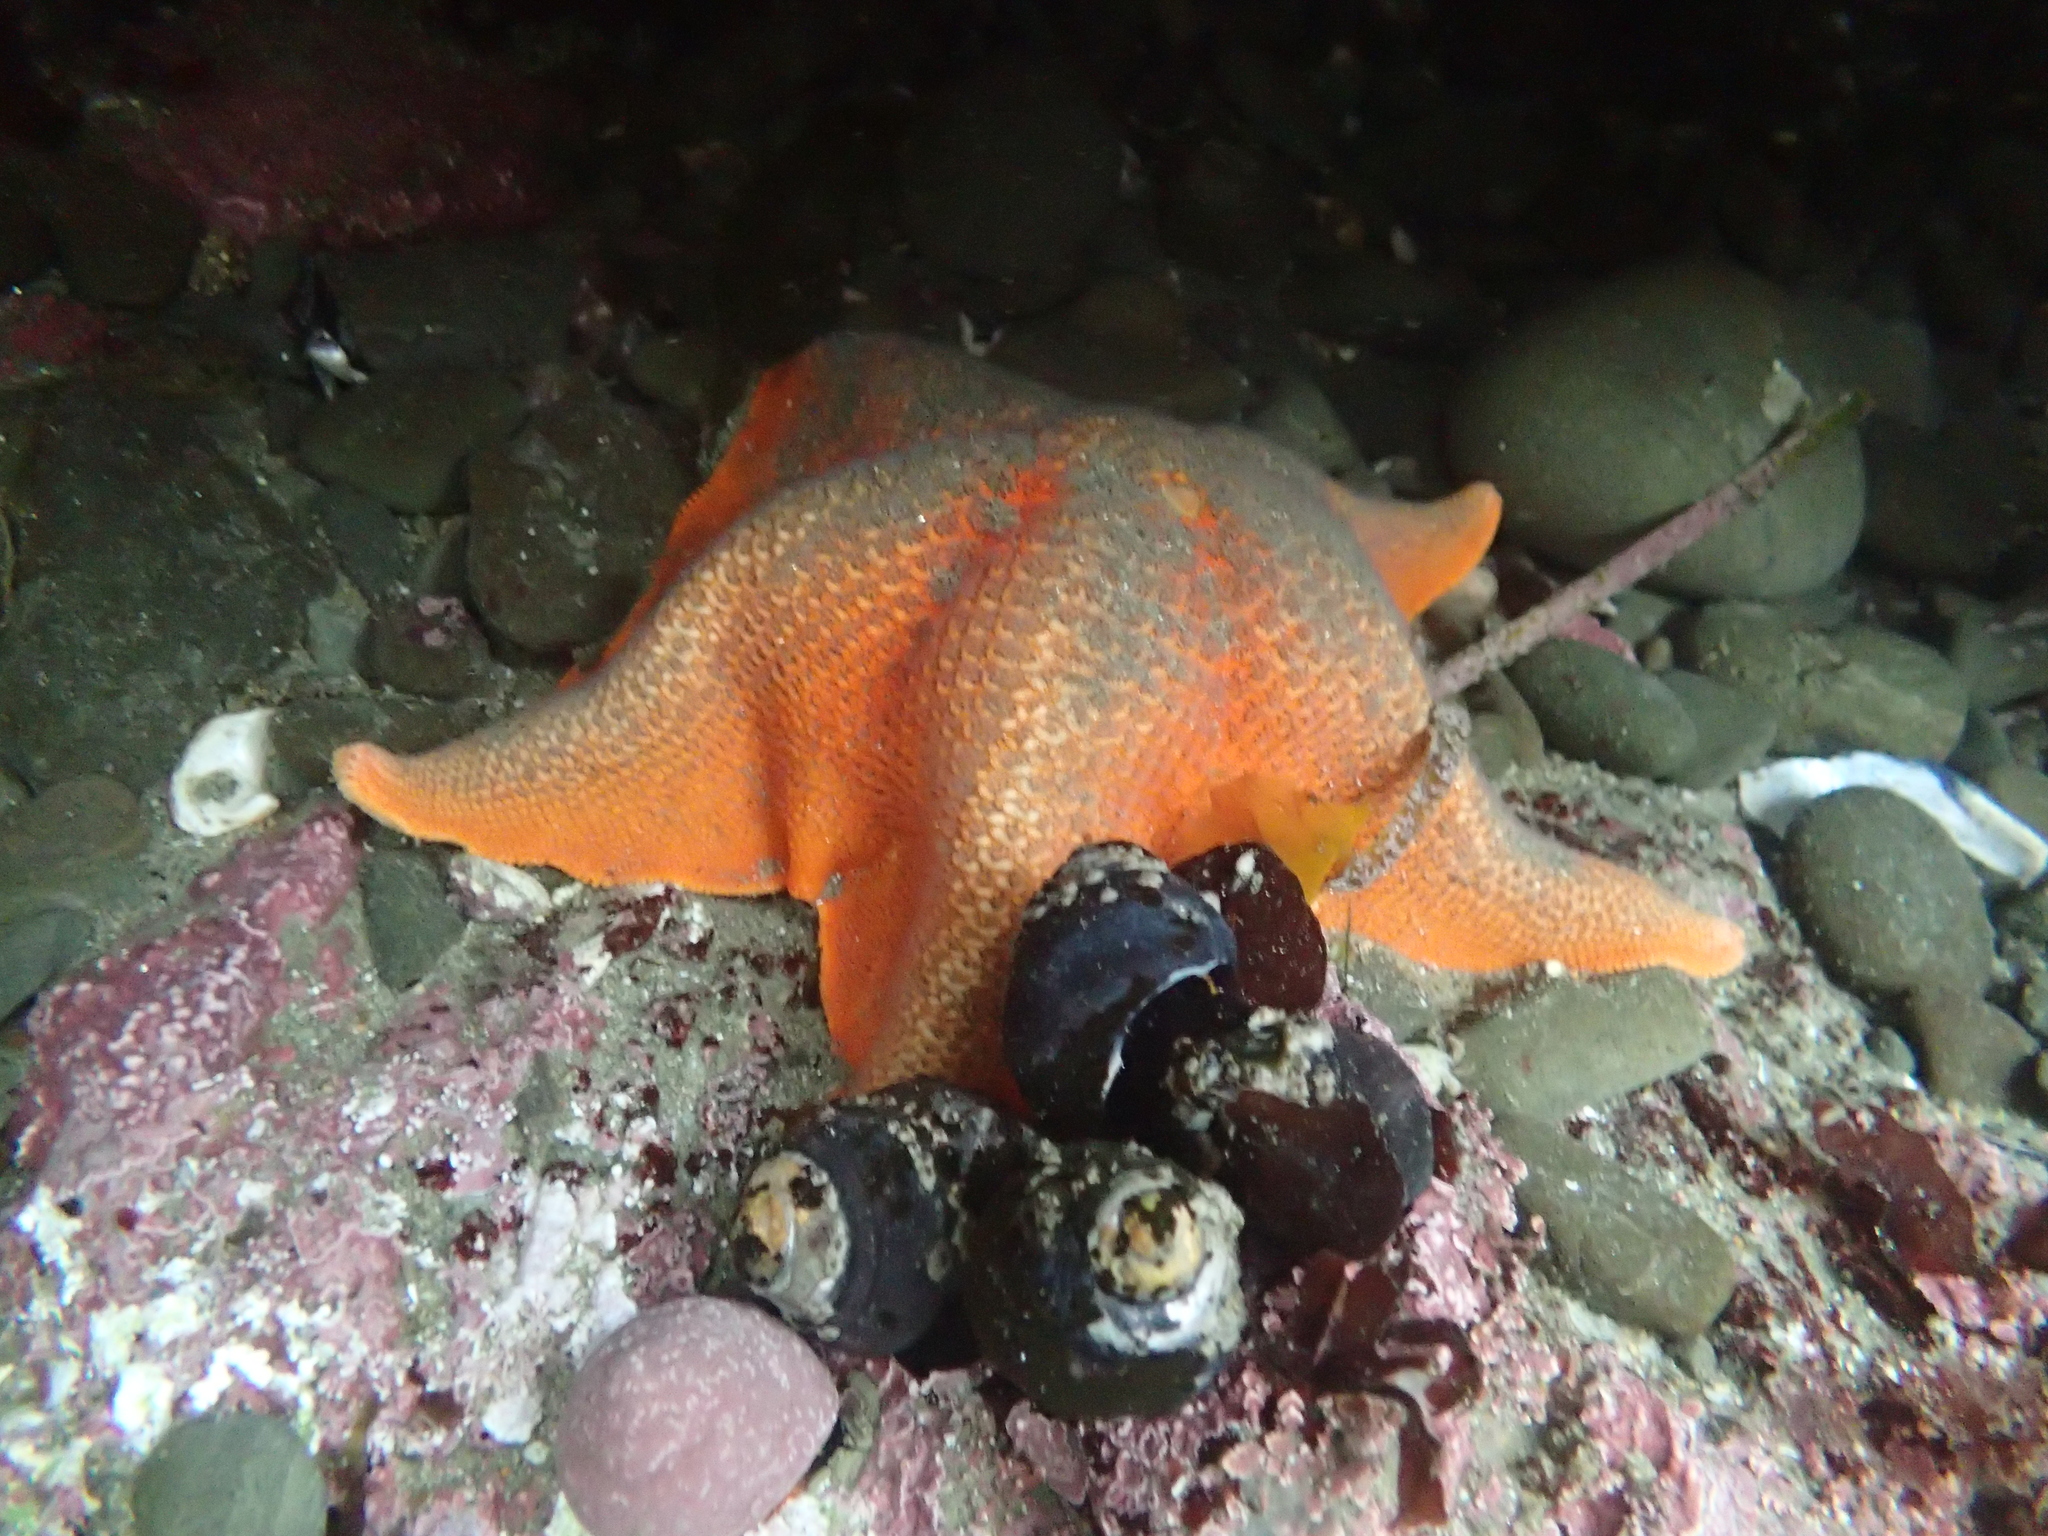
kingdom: Animalia
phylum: Echinodermata
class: Asteroidea
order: Valvatida
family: Asterinidae
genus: Patiria
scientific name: Patiria miniata
